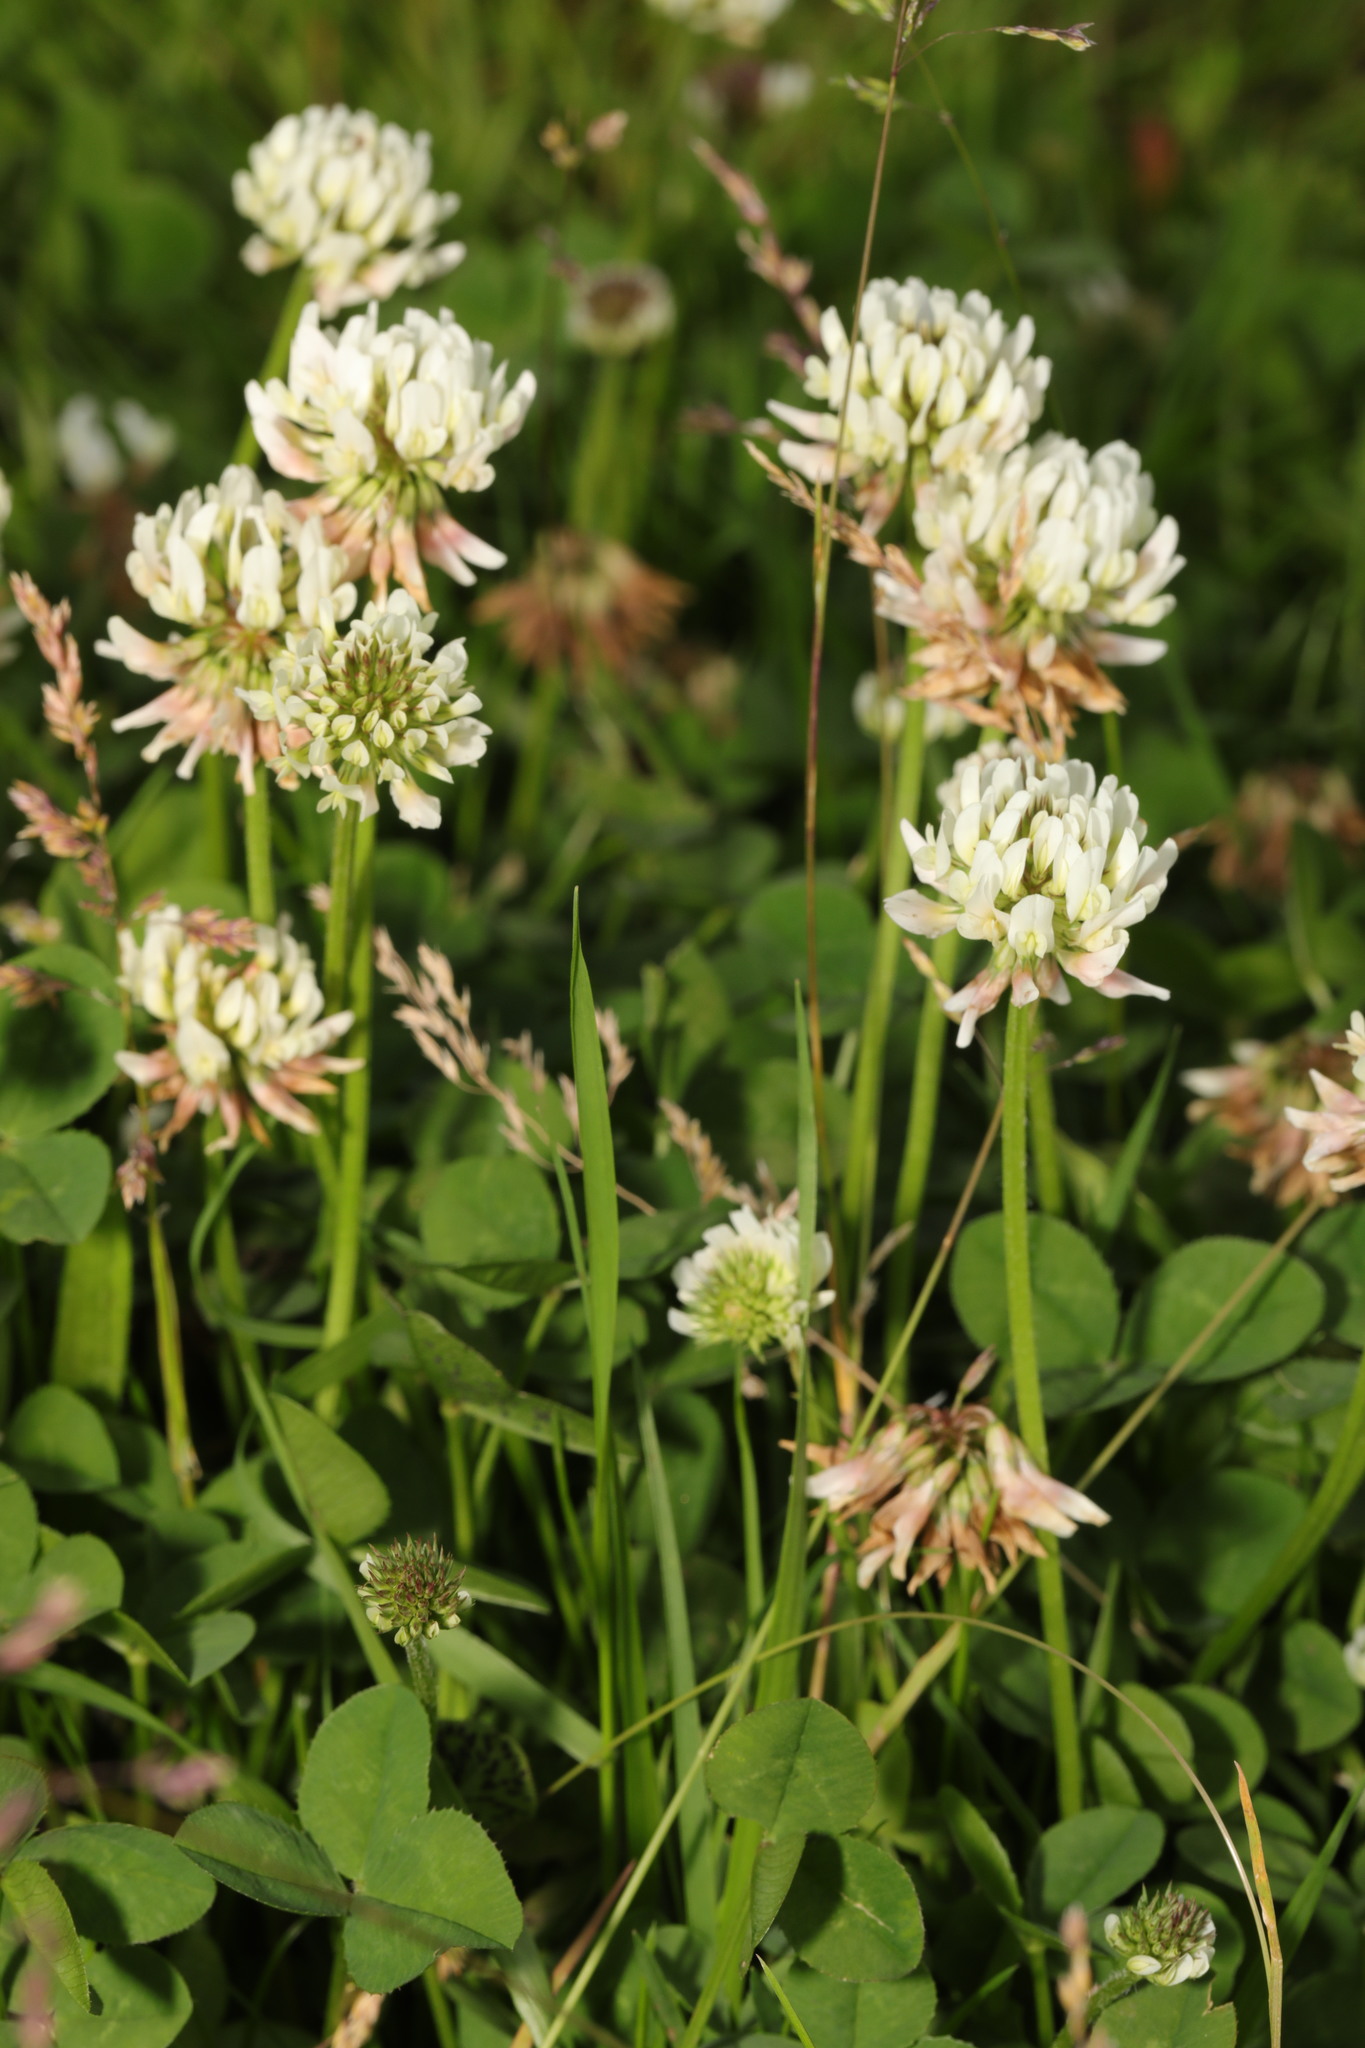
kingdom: Plantae
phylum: Tracheophyta
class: Magnoliopsida
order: Fabales
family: Fabaceae
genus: Trifolium
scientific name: Trifolium repens
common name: White clover
